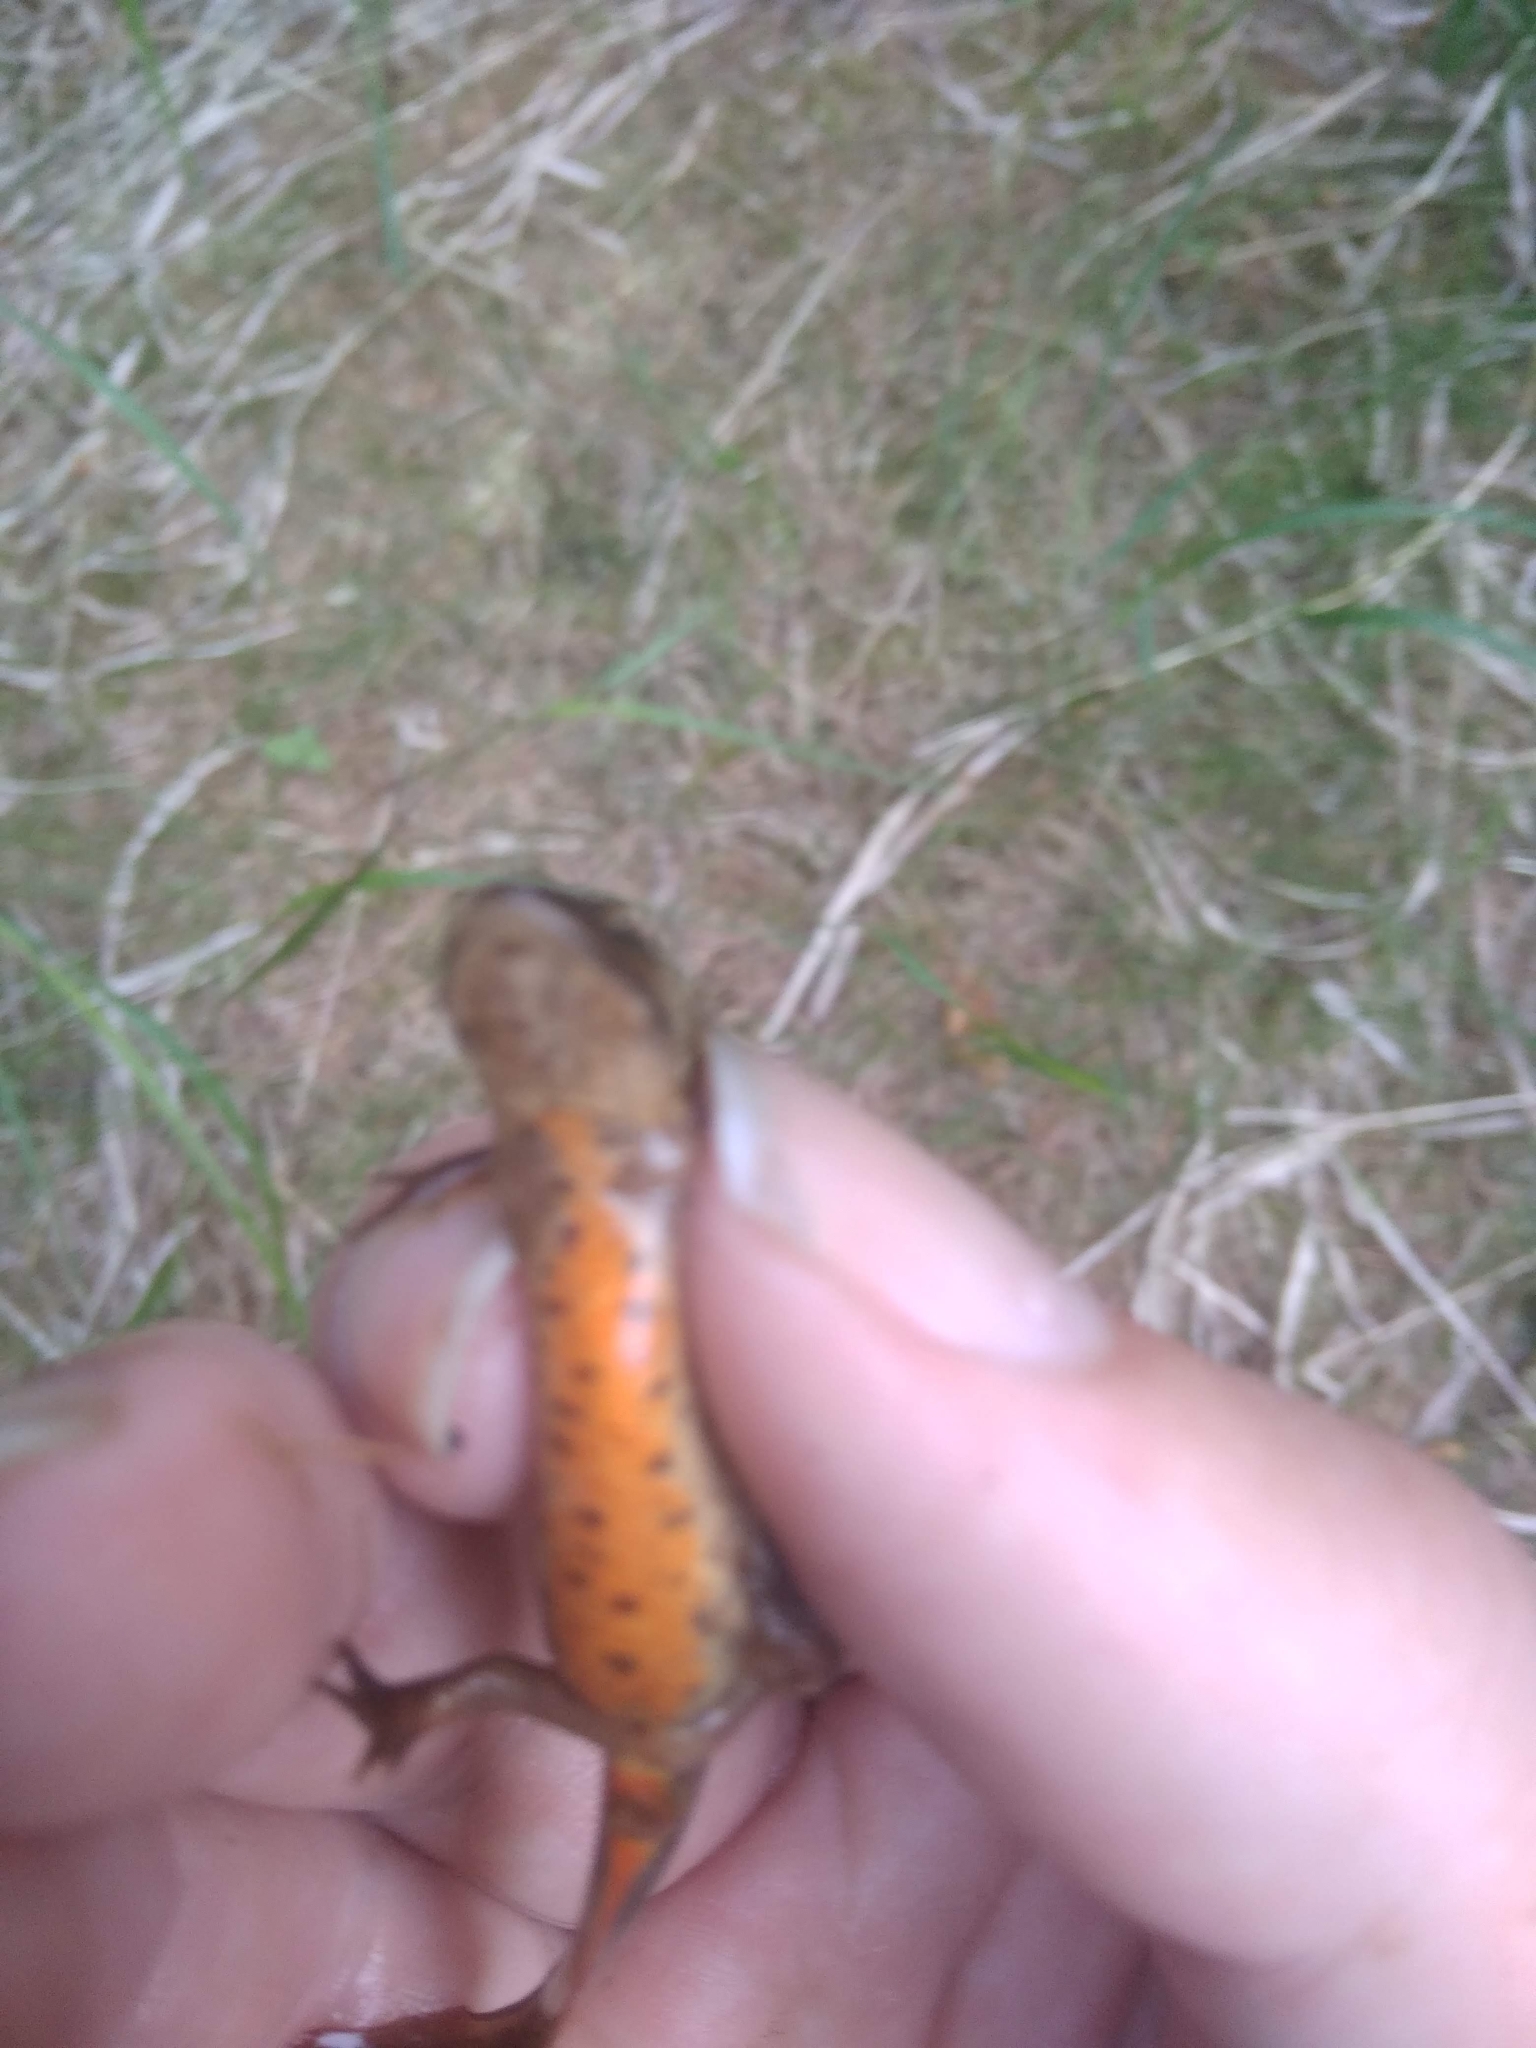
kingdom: Animalia
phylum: Chordata
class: Amphibia
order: Caudata
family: Salamandridae
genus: Lissotriton
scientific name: Lissotriton vulgaris
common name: Smooth newt
